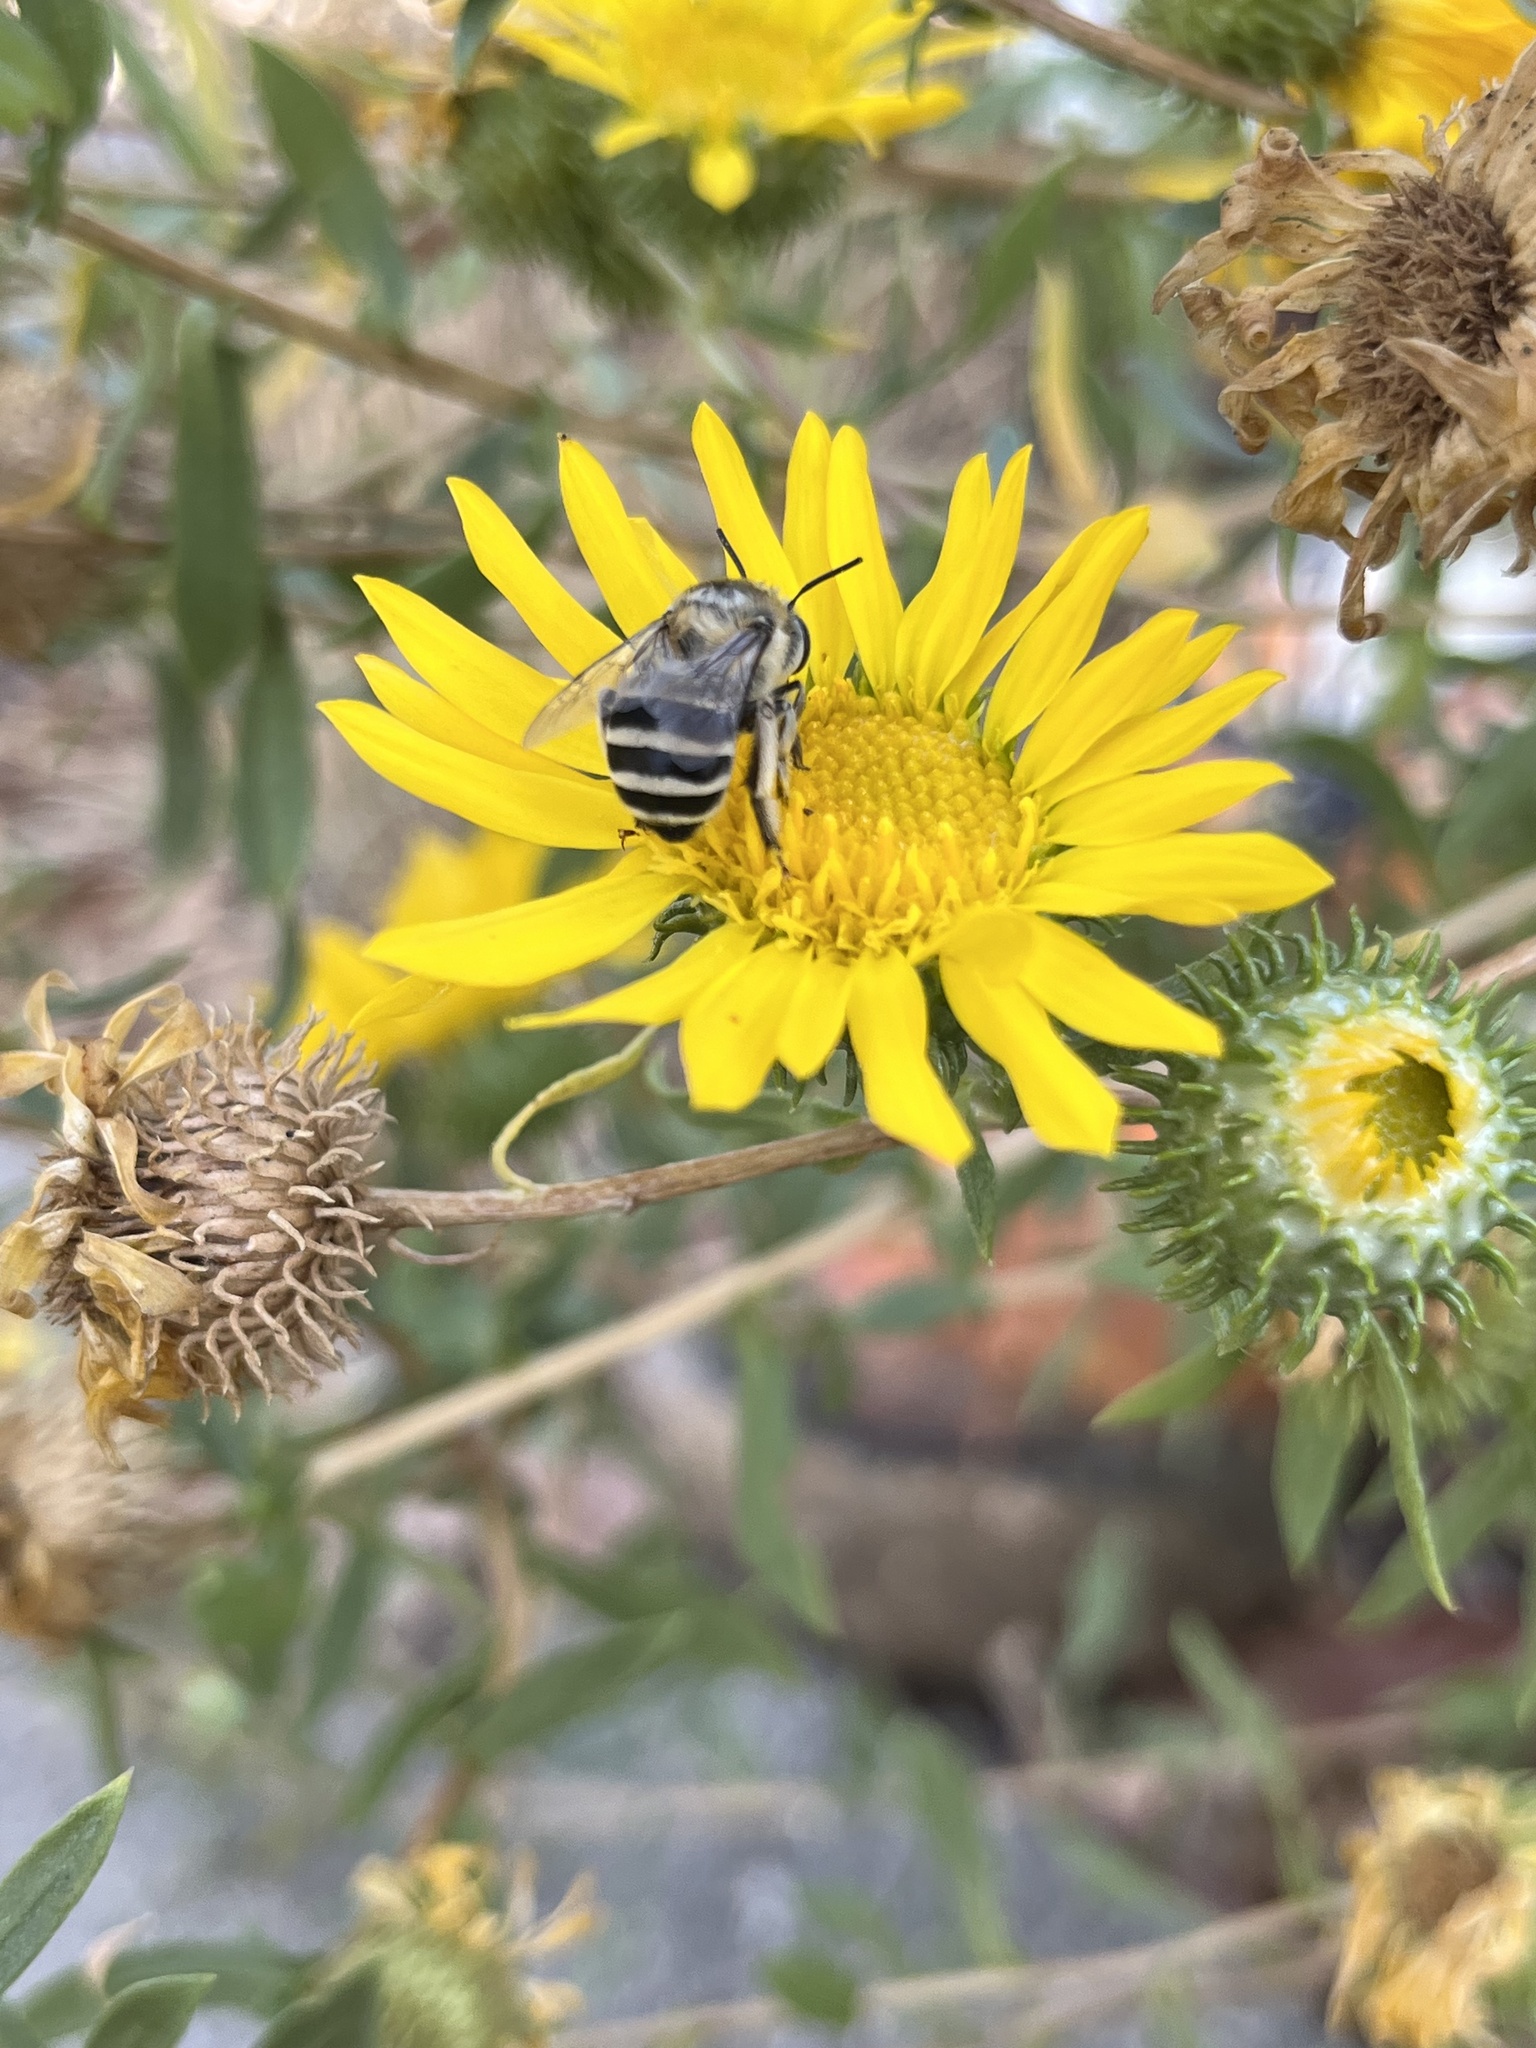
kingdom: Animalia
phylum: Arthropoda
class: Insecta
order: Hymenoptera
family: Apidae
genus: Anthophora
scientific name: Anthophora urbana
